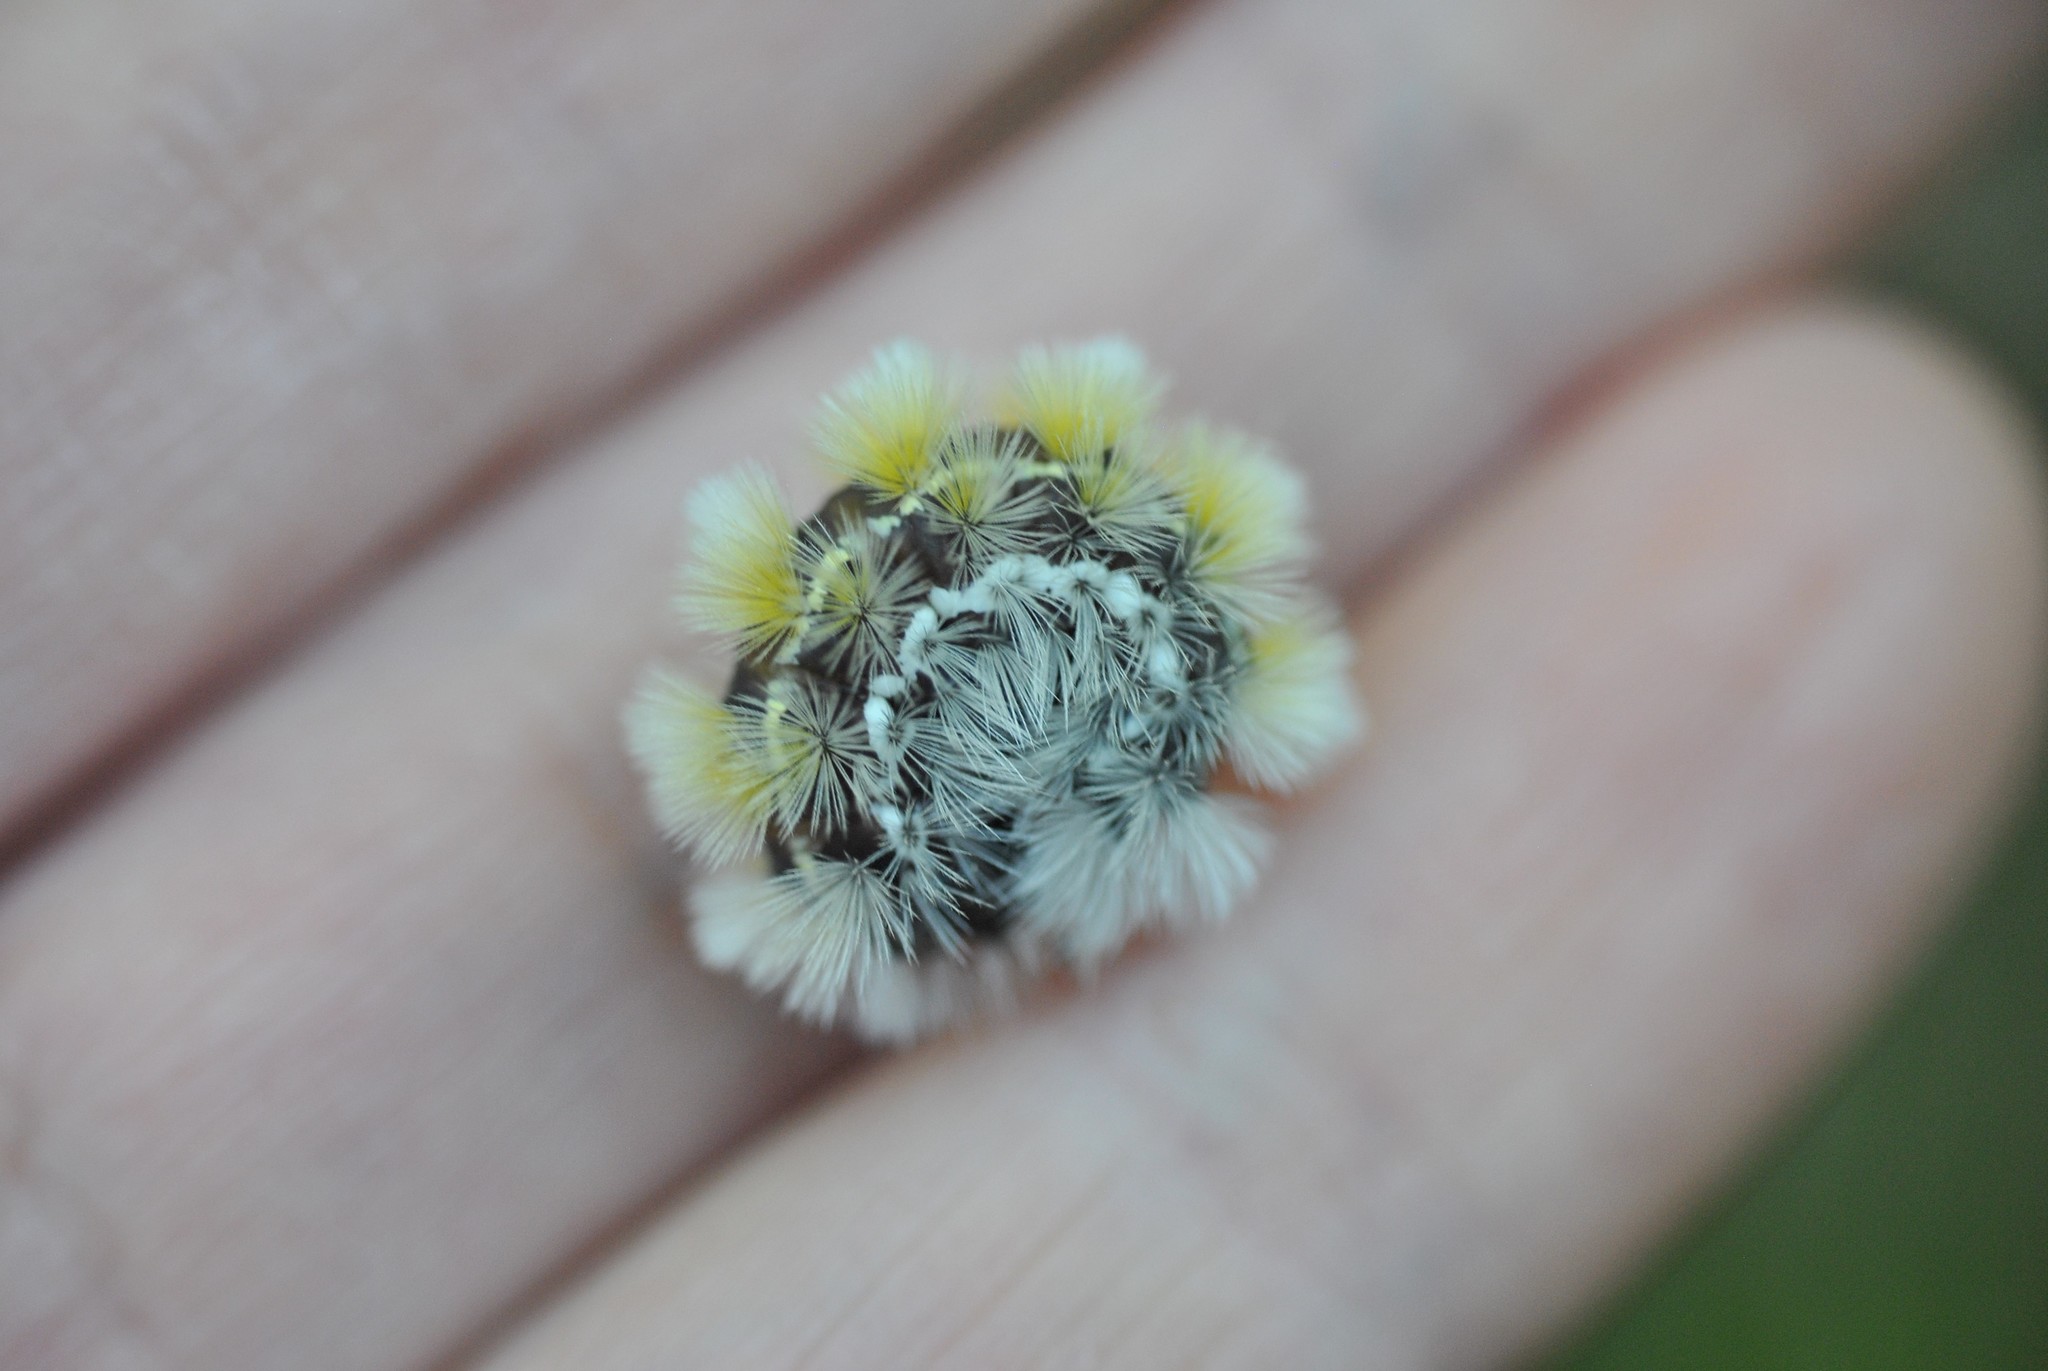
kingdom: Animalia
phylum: Arthropoda
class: Insecta
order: Lepidoptera
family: Erebidae
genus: Ctenucha
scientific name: Ctenucha virginica
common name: Virginia ctenucha moth
